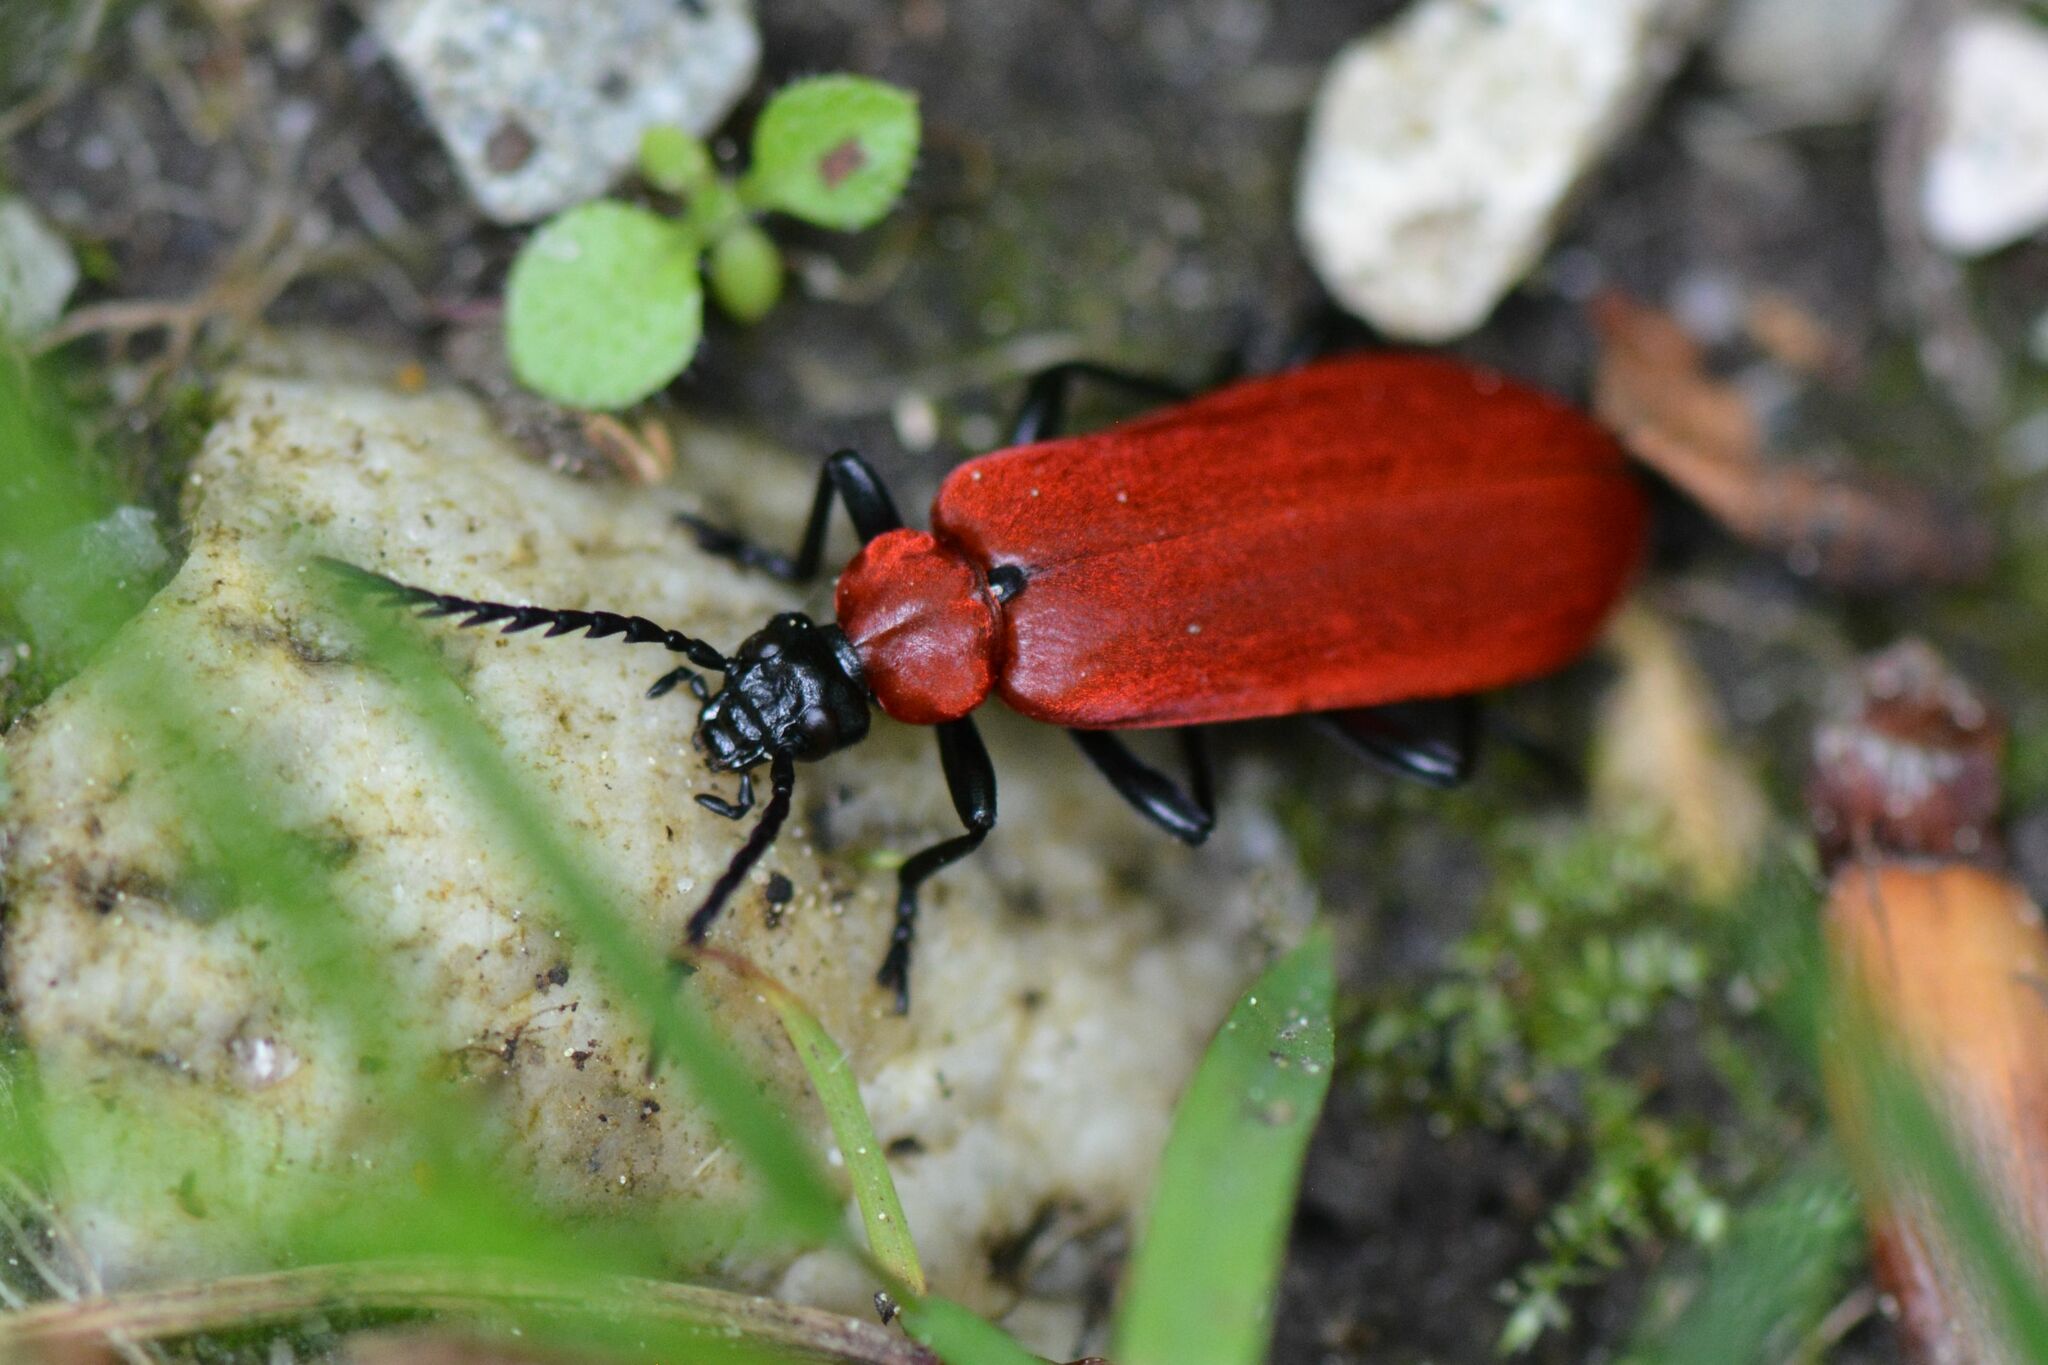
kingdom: Animalia
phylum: Arthropoda
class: Insecta
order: Coleoptera
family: Pyrochroidae
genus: Pyrochroa
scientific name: Pyrochroa coccinea
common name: Black-headed cardinal beetle
